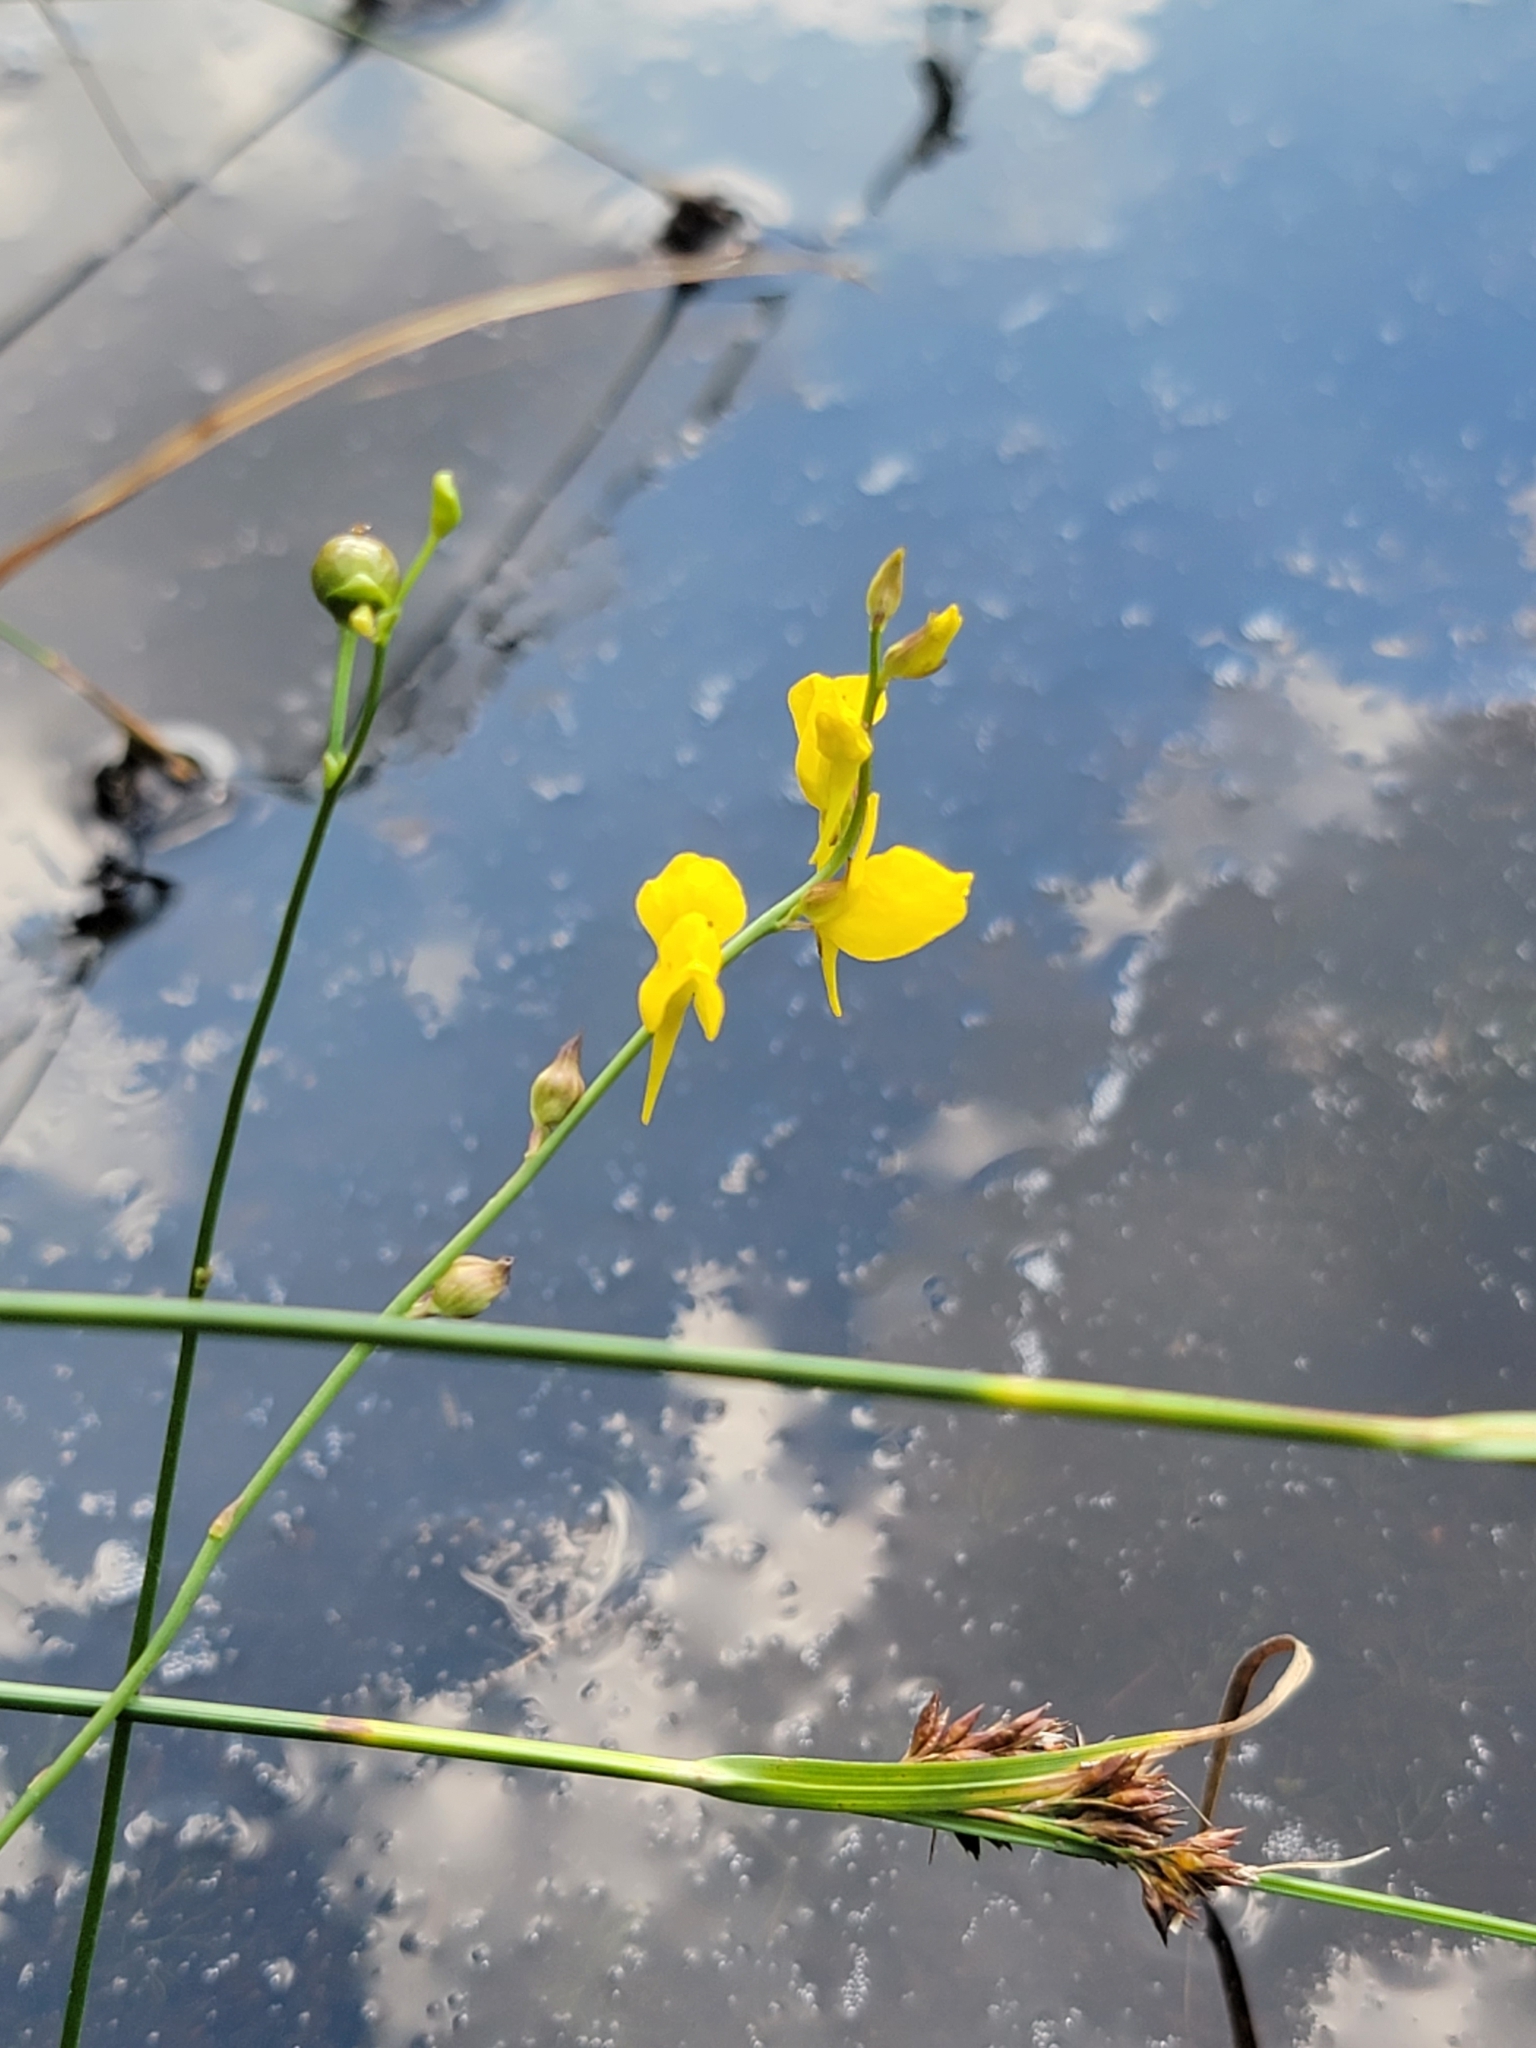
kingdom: Plantae
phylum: Tracheophyta
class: Magnoliopsida
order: Lamiales
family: Lentibulariaceae
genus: Utricularia
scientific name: Utricularia cornuta
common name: Horned bladderwort
